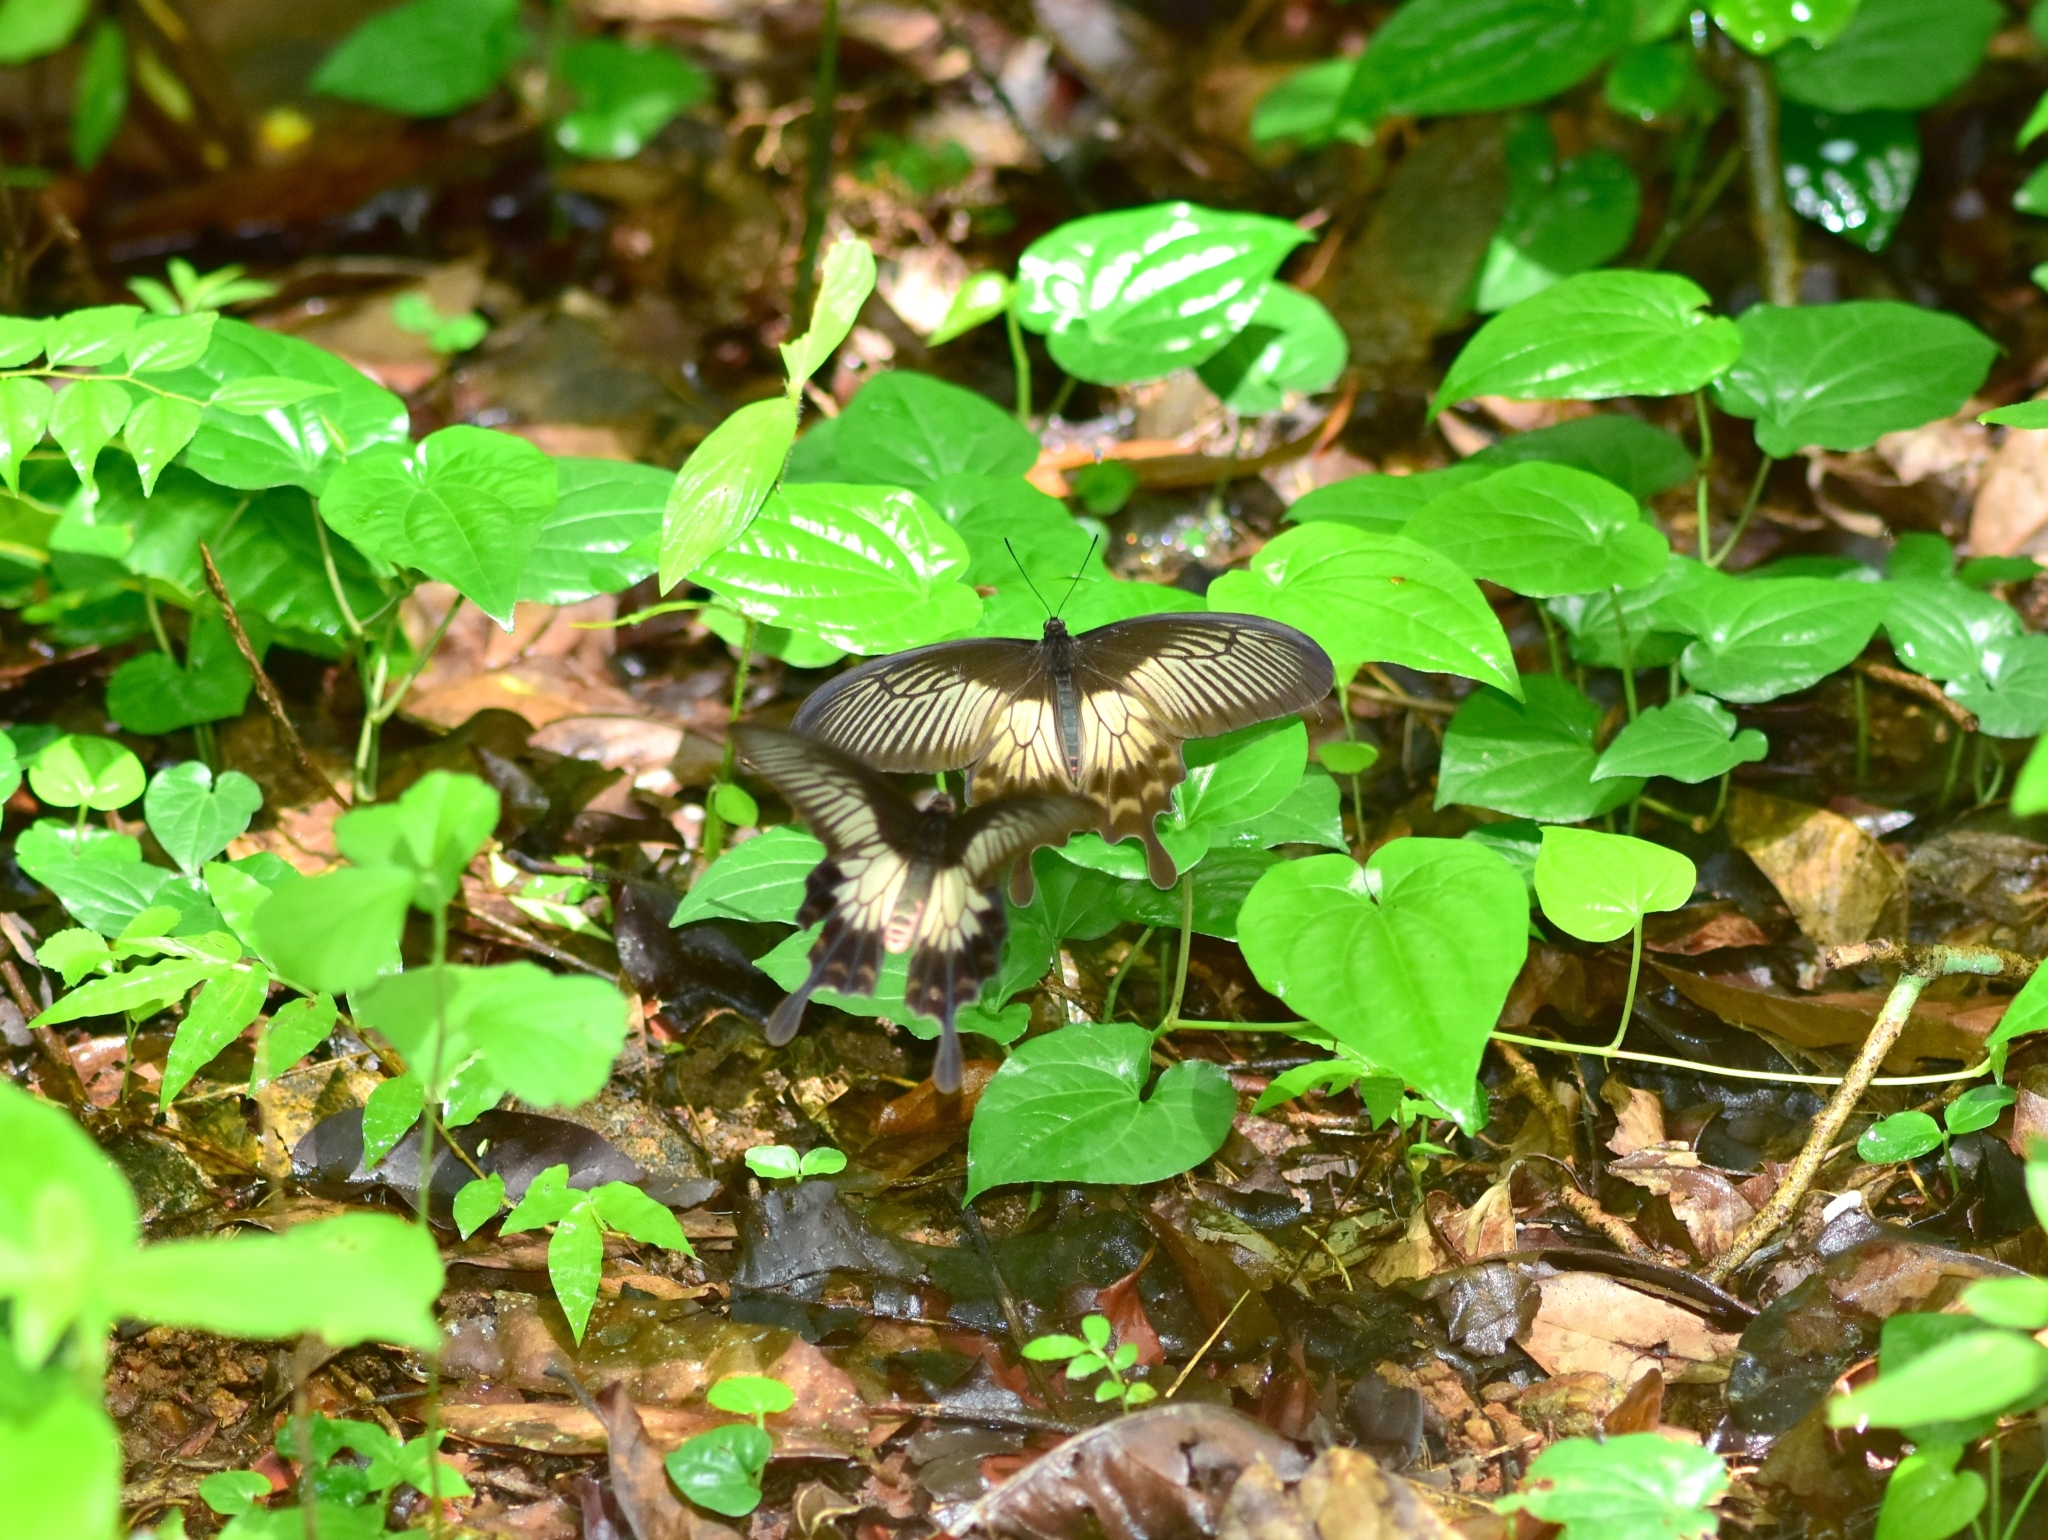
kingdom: Animalia
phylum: Arthropoda
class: Insecta
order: Lepidoptera
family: Papilionidae
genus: Pachliopta
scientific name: Pachliopta pandiyana
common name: Malabar rose
